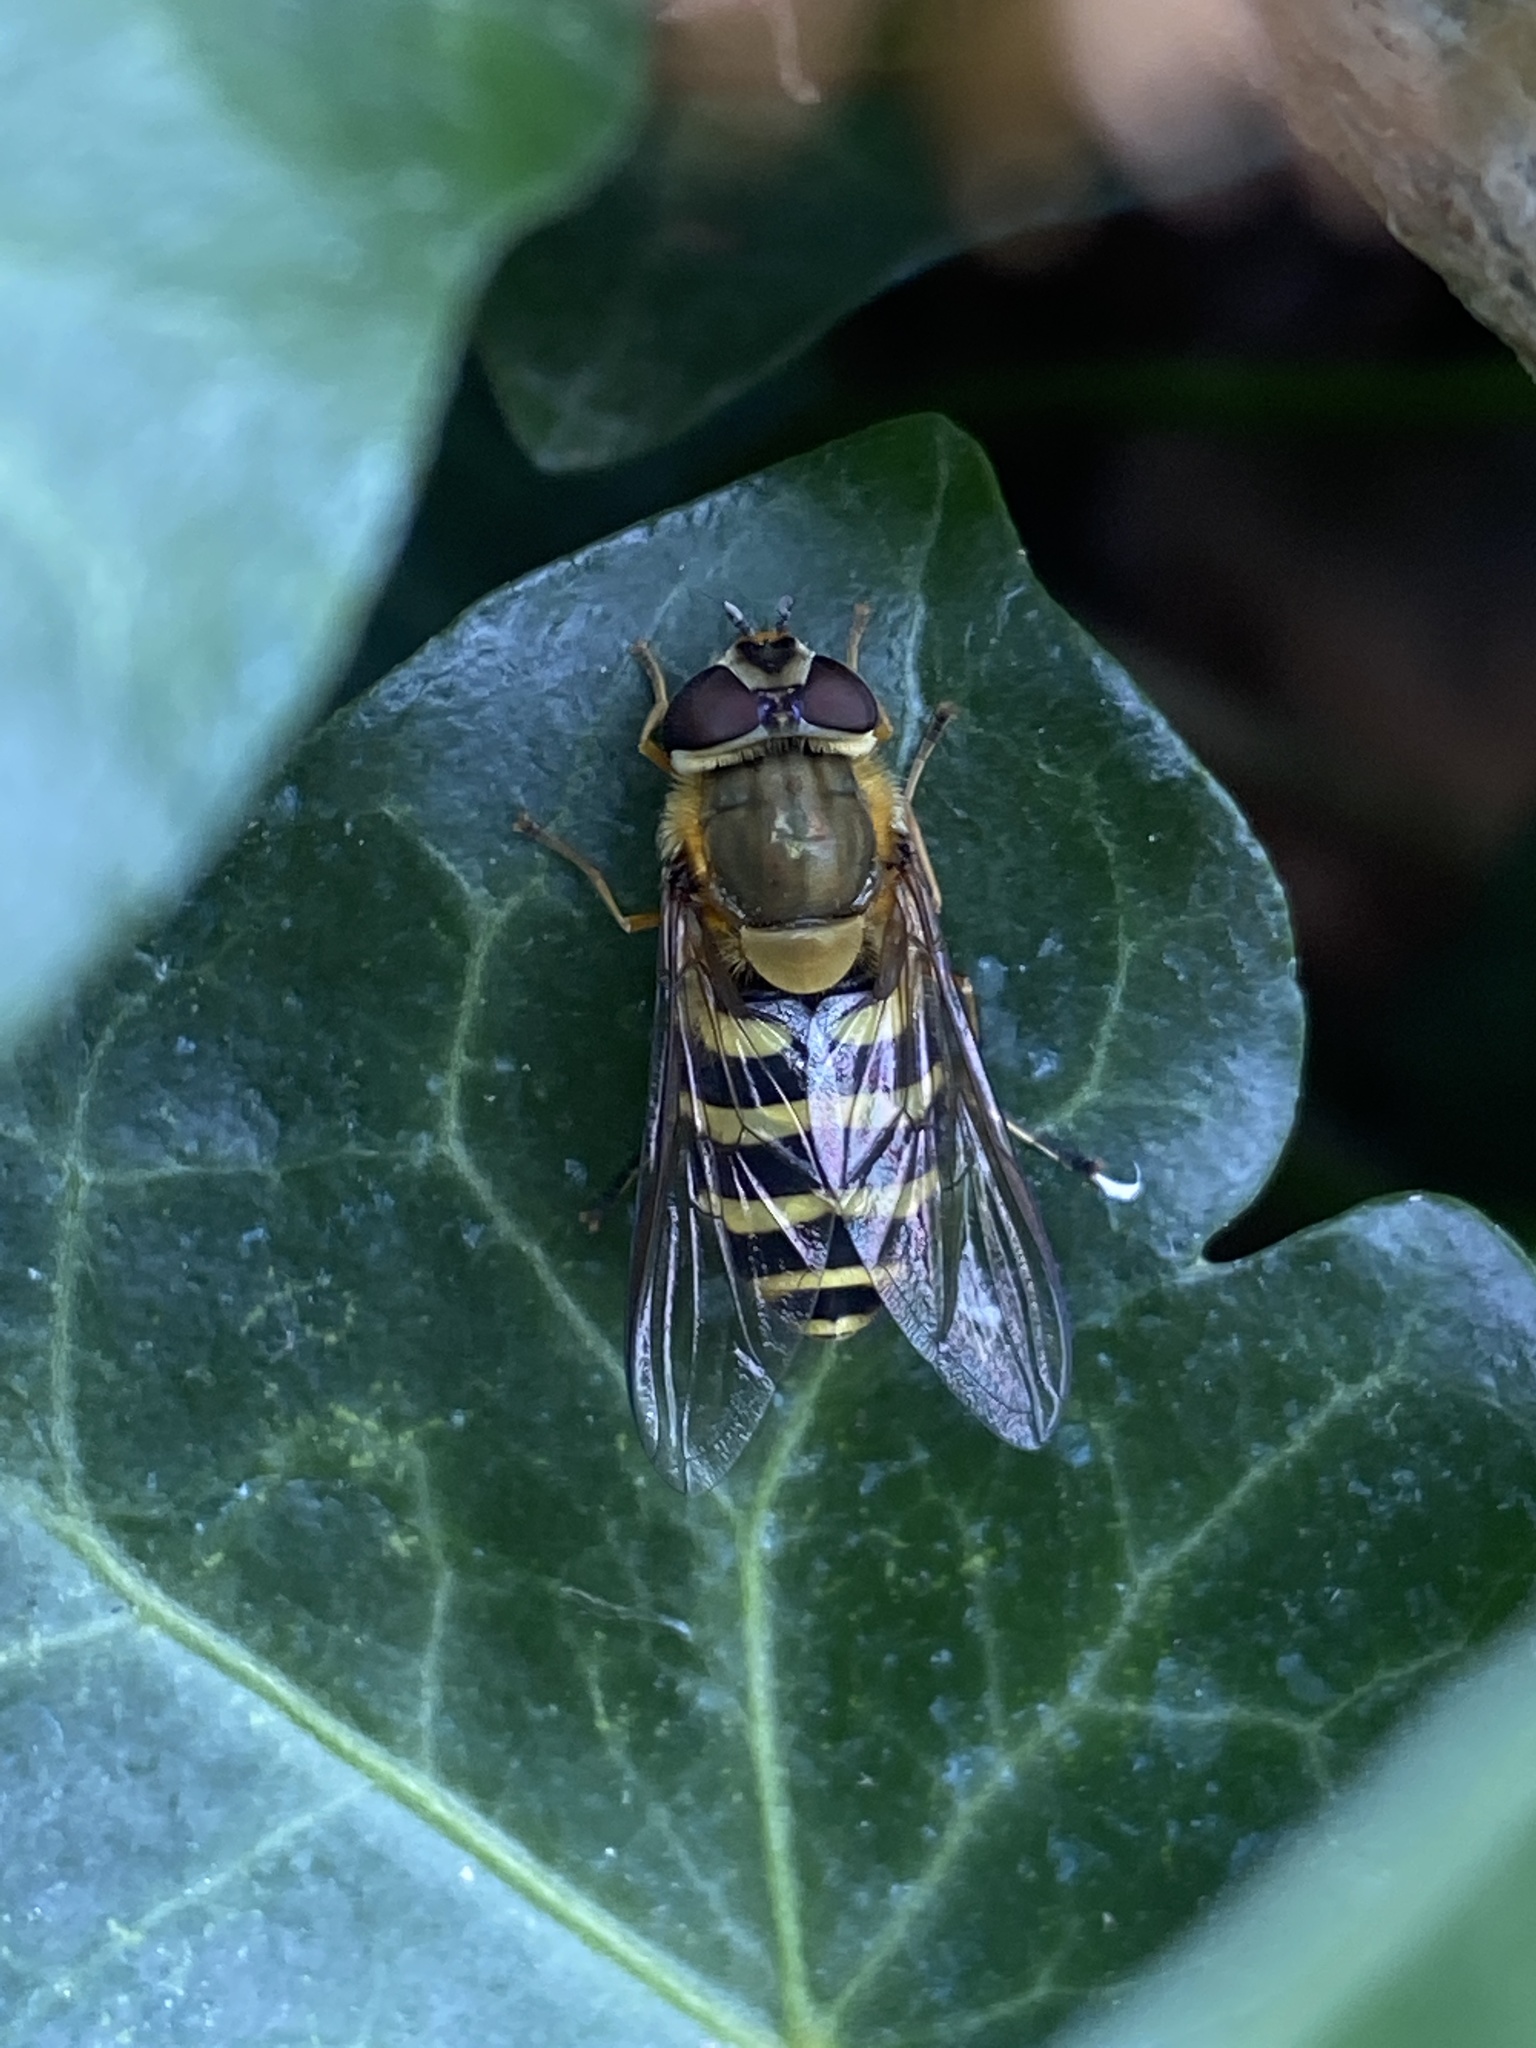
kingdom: Animalia
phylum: Arthropoda
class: Insecta
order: Diptera
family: Syrphidae
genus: Syrphus
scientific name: Syrphus
